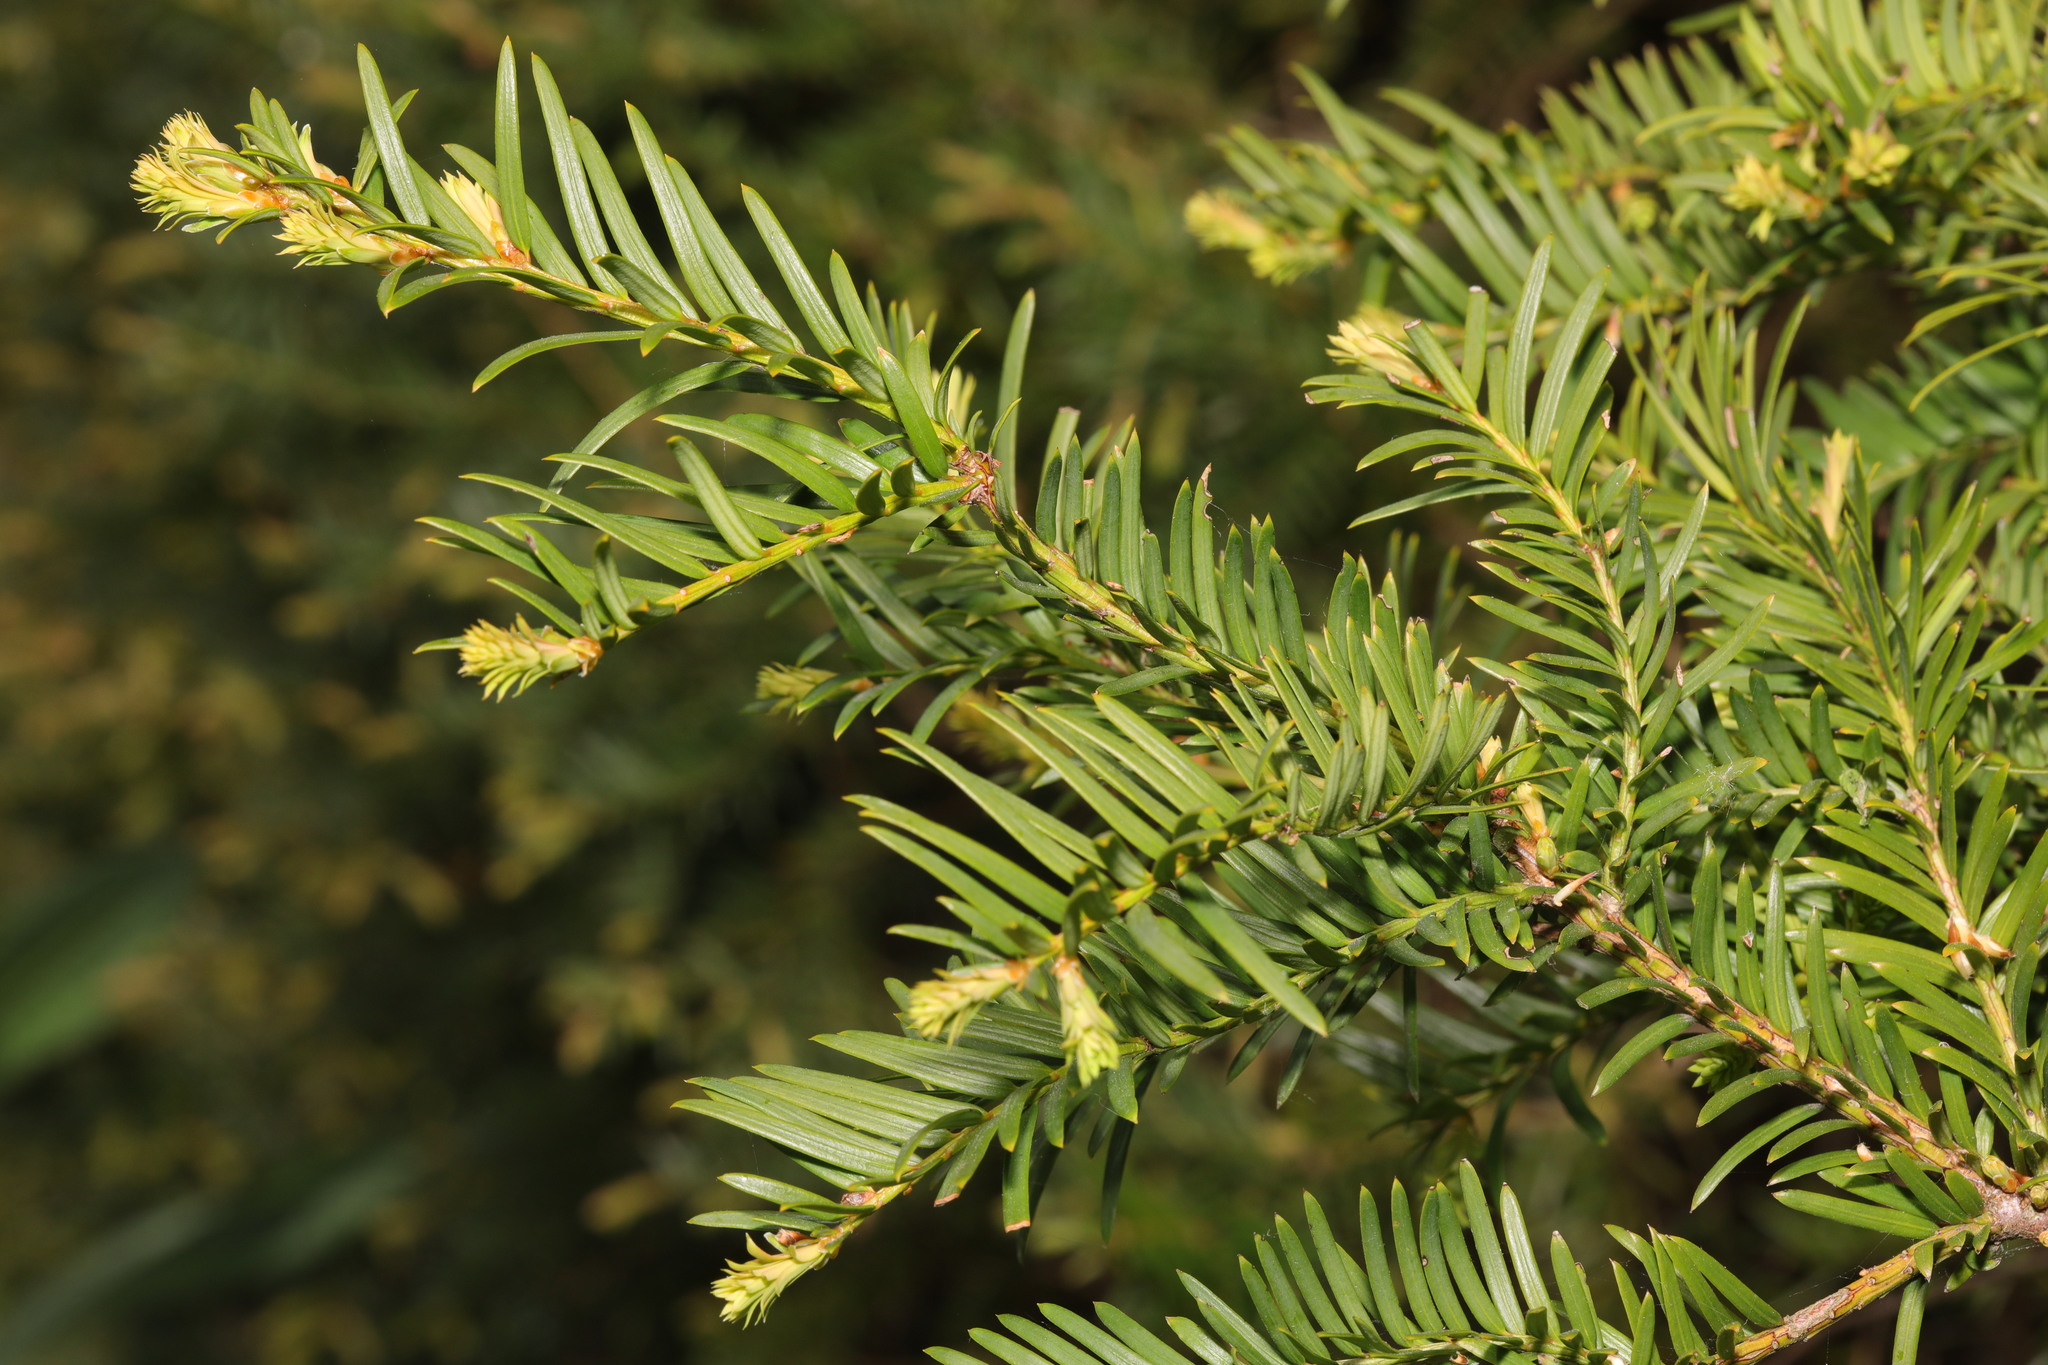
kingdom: Plantae
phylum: Tracheophyta
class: Pinopsida
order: Pinales
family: Taxaceae
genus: Taxus
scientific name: Taxus baccata
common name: Yew
